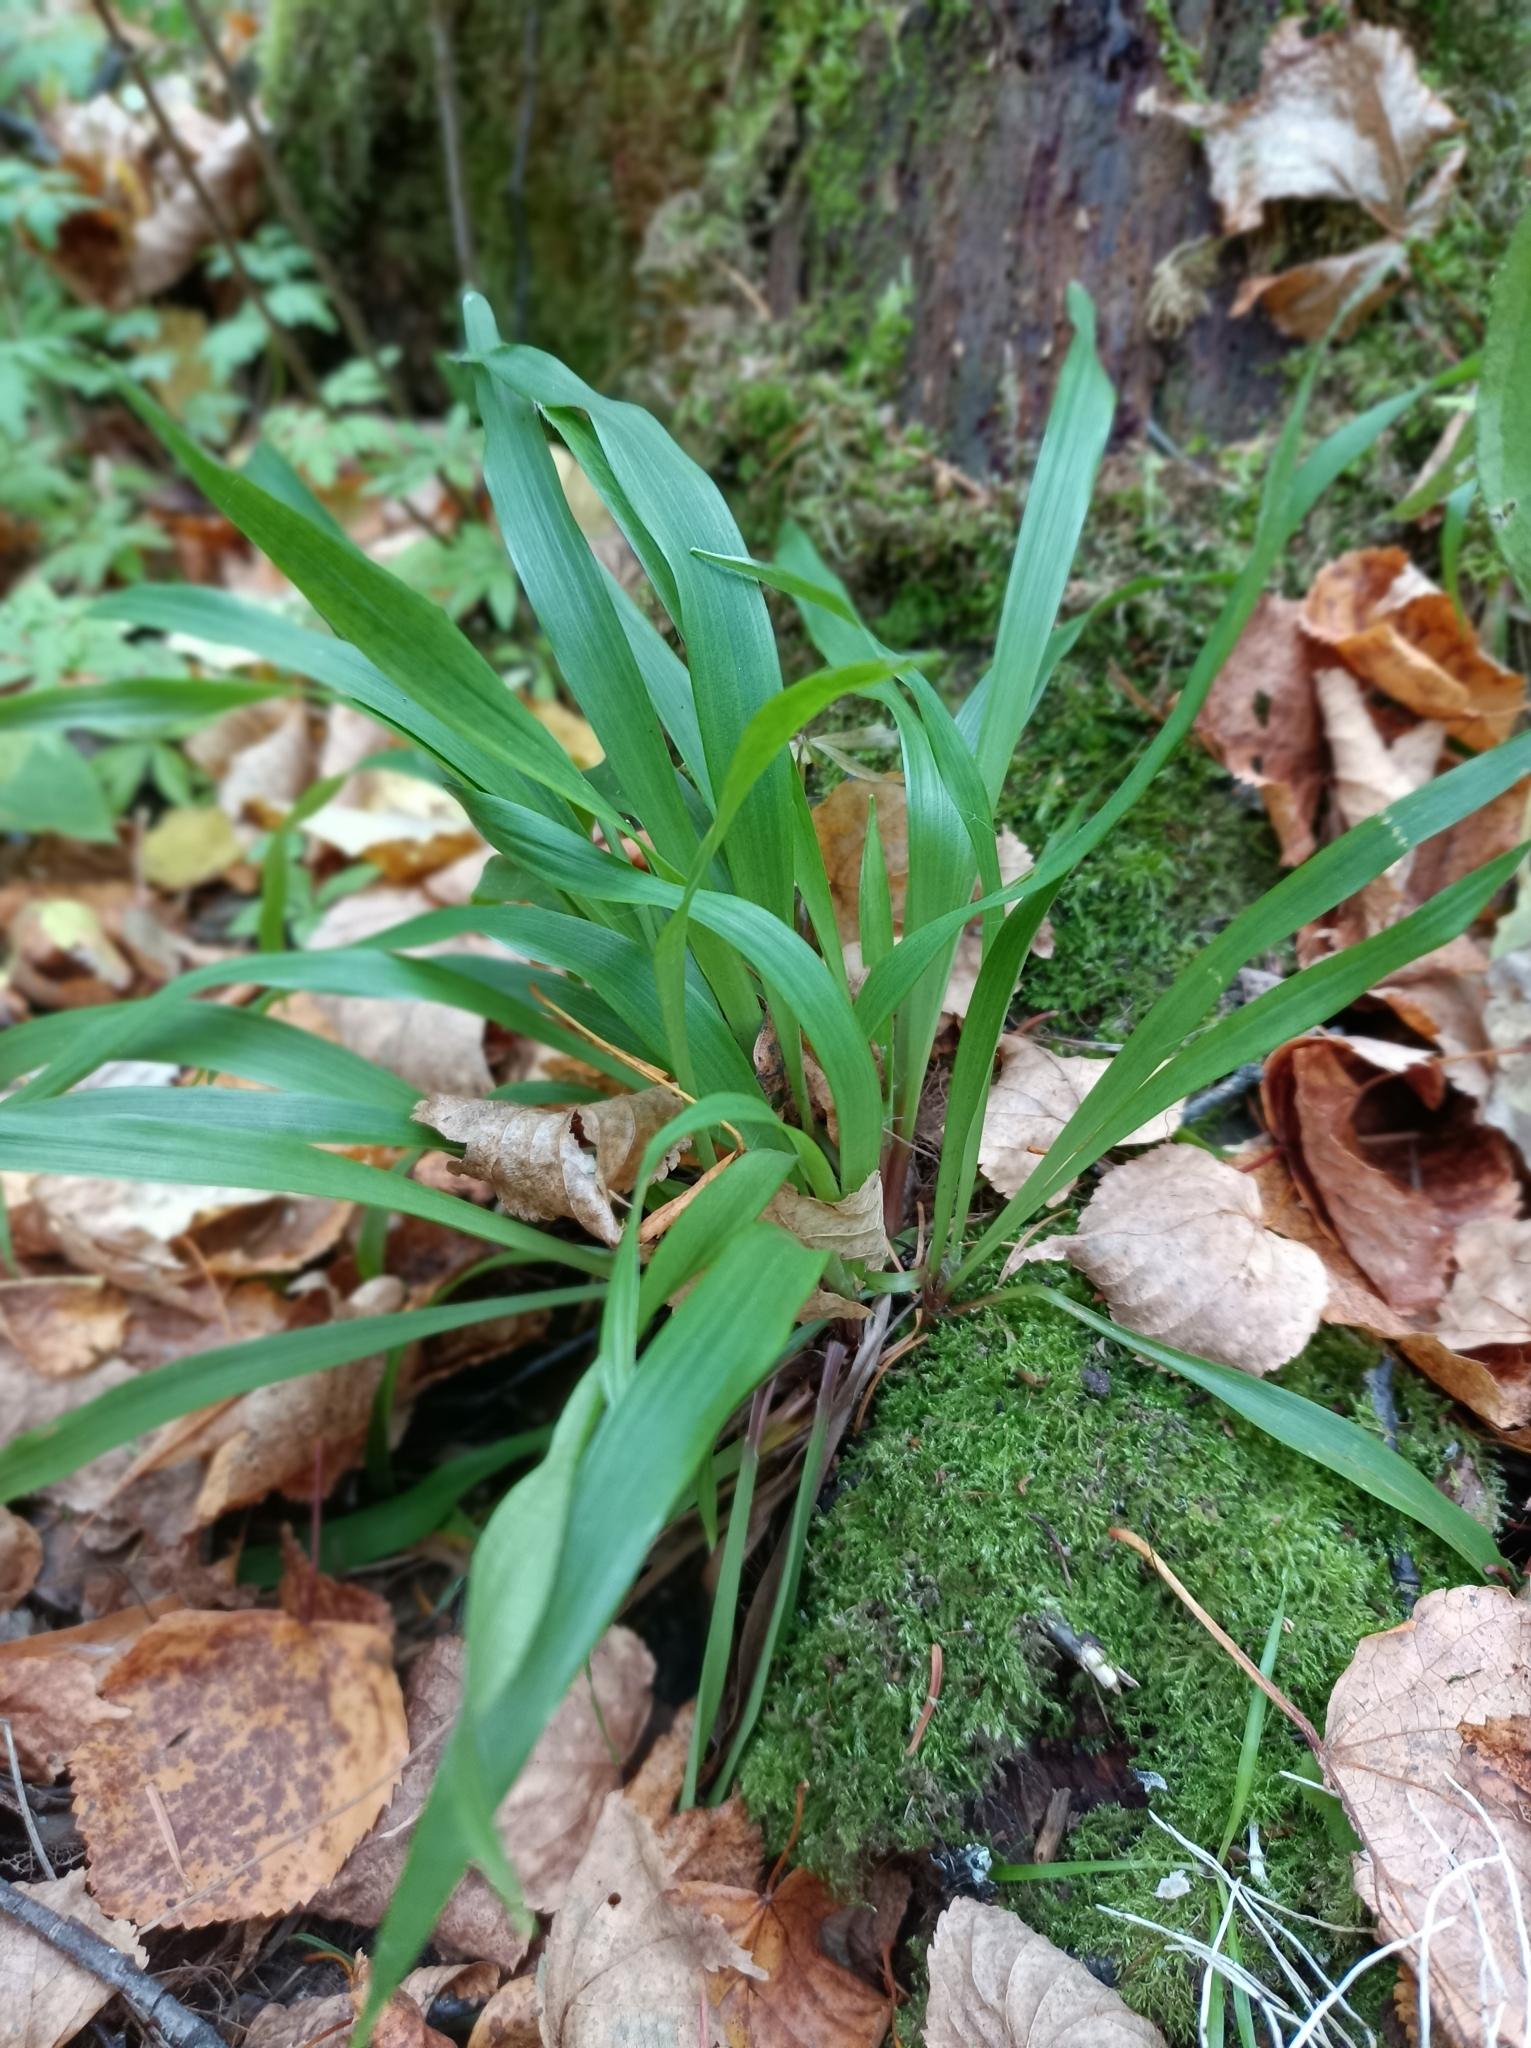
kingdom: Plantae
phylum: Tracheophyta
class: Liliopsida
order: Poales
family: Juncaceae
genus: Luzula
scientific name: Luzula pilosa
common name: Hairy wood-rush
